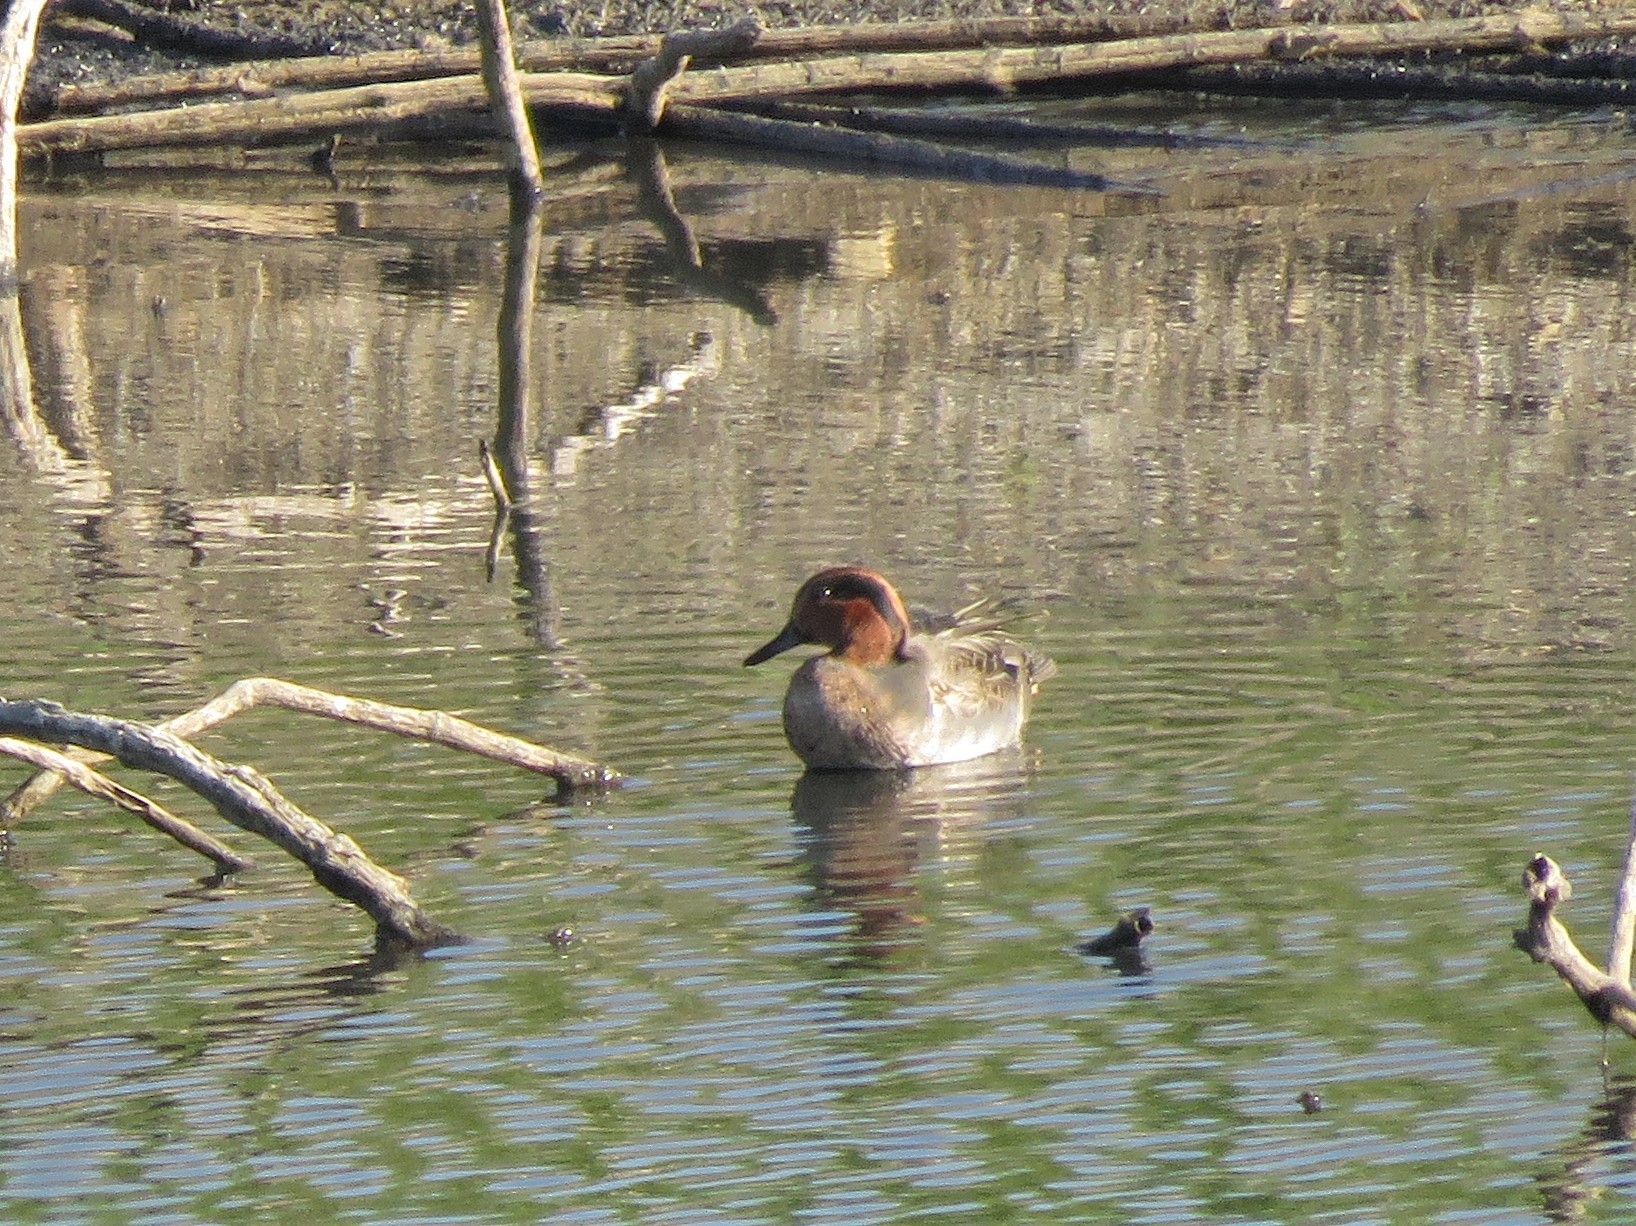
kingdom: Animalia
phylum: Chordata
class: Aves
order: Anseriformes
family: Anatidae
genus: Anas
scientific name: Anas crecca
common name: Eurasian teal
